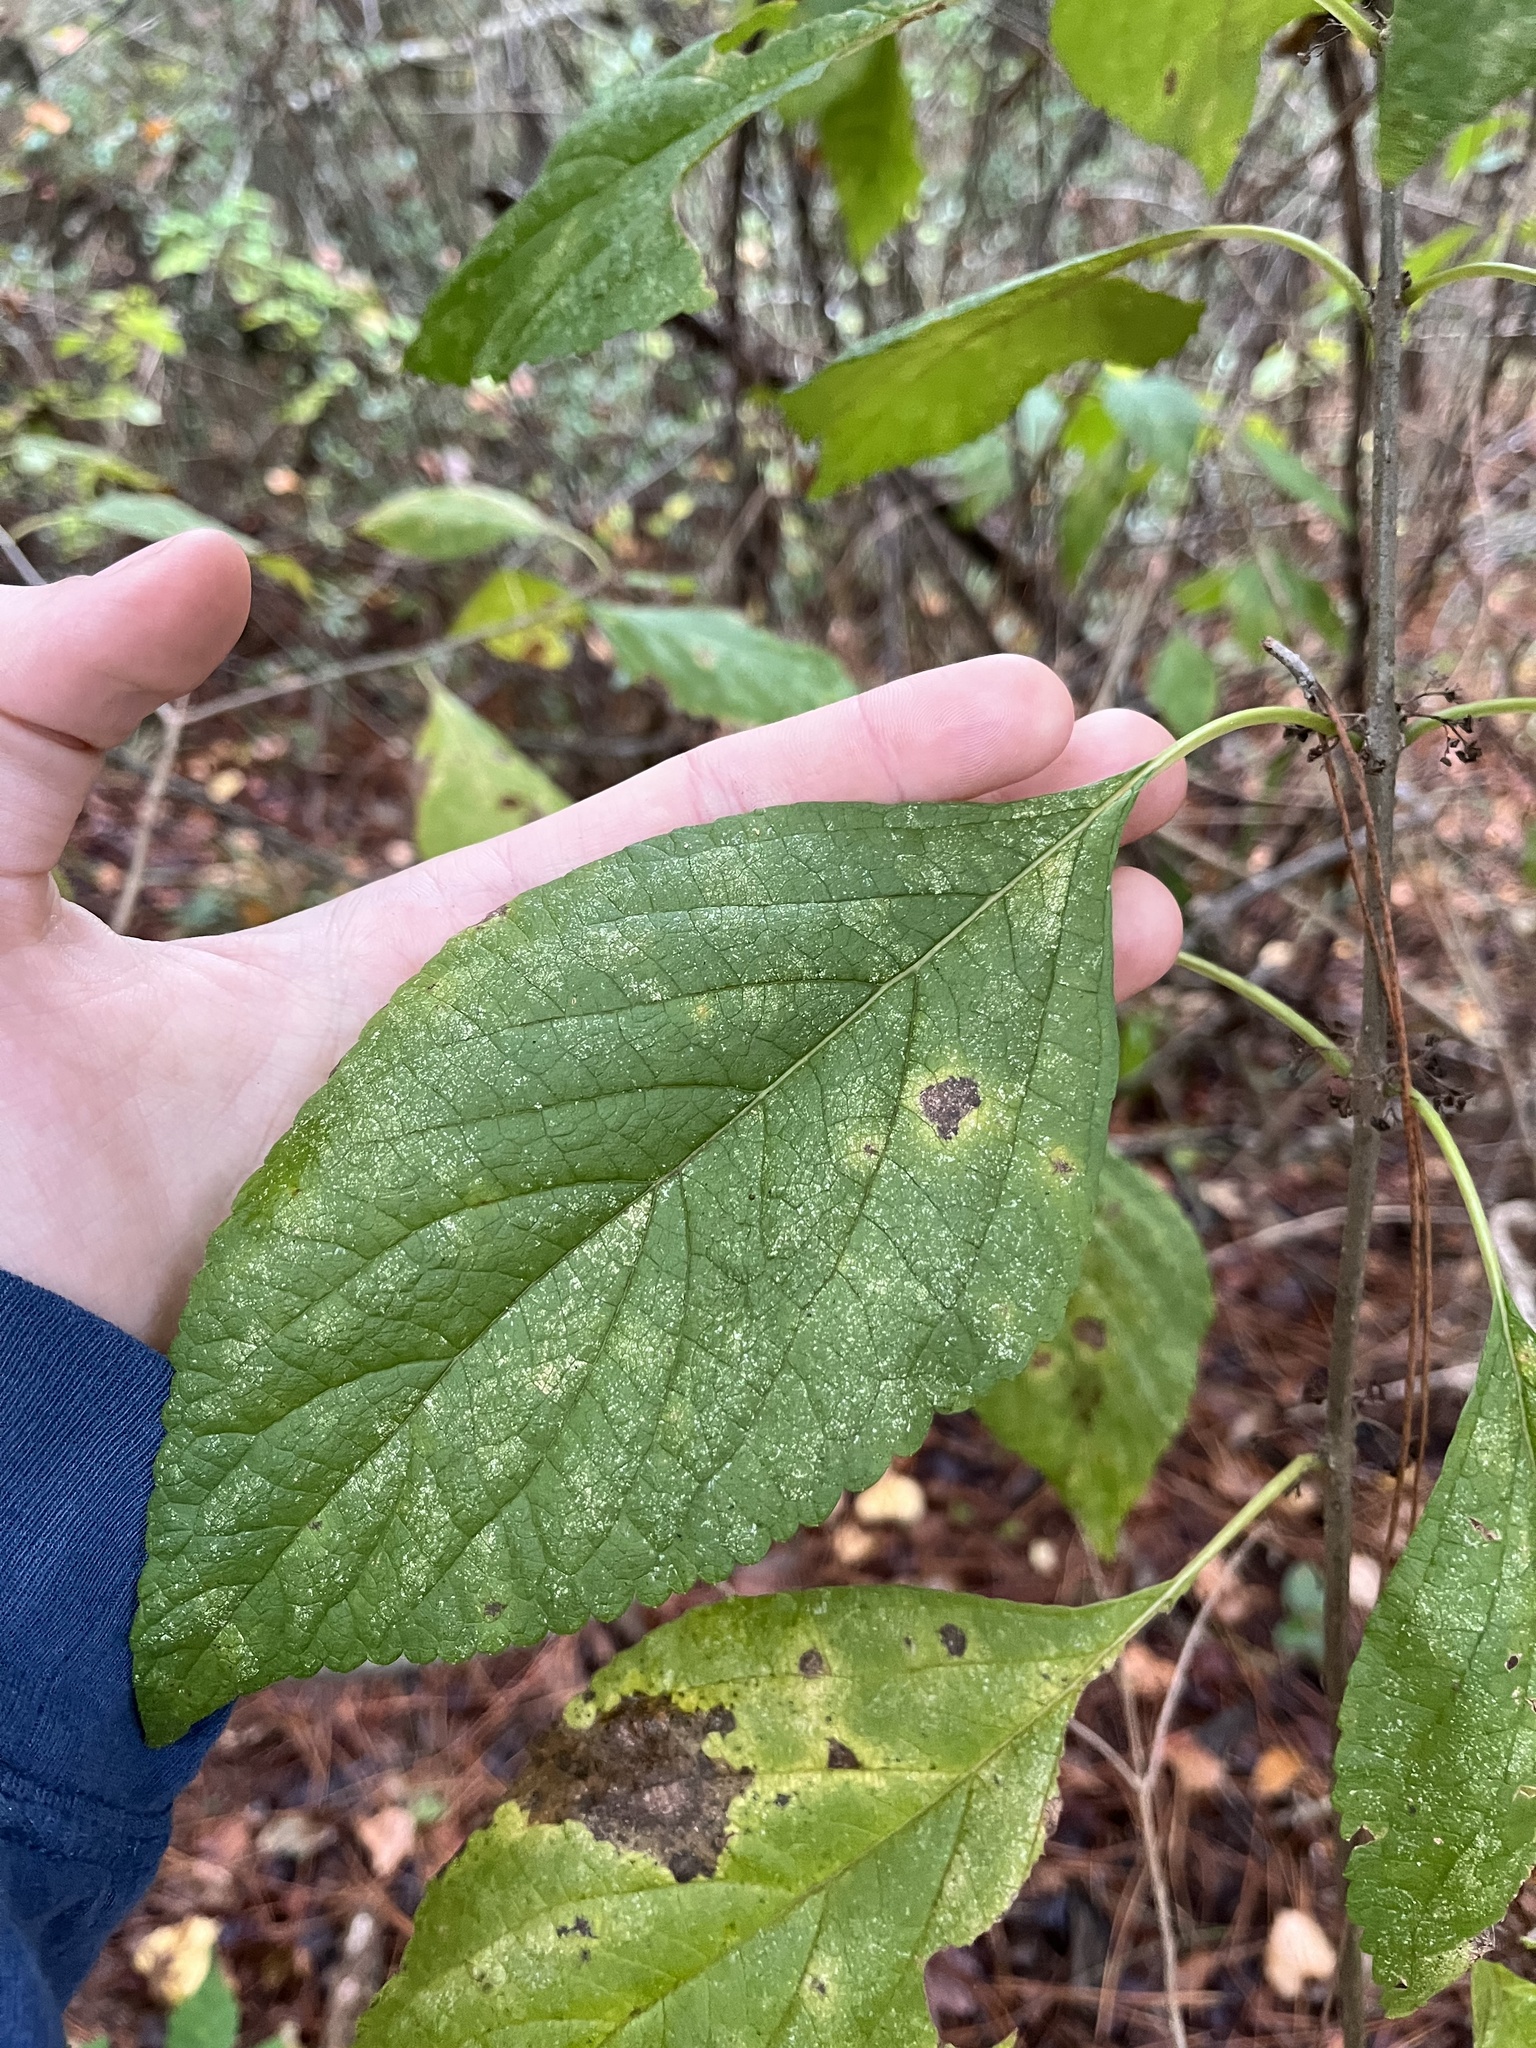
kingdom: Plantae
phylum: Tracheophyta
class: Magnoliopsida
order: Lamiales
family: Lamiaceae
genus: Callicarpa
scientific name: Callicarpa americana
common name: American beautyberry
